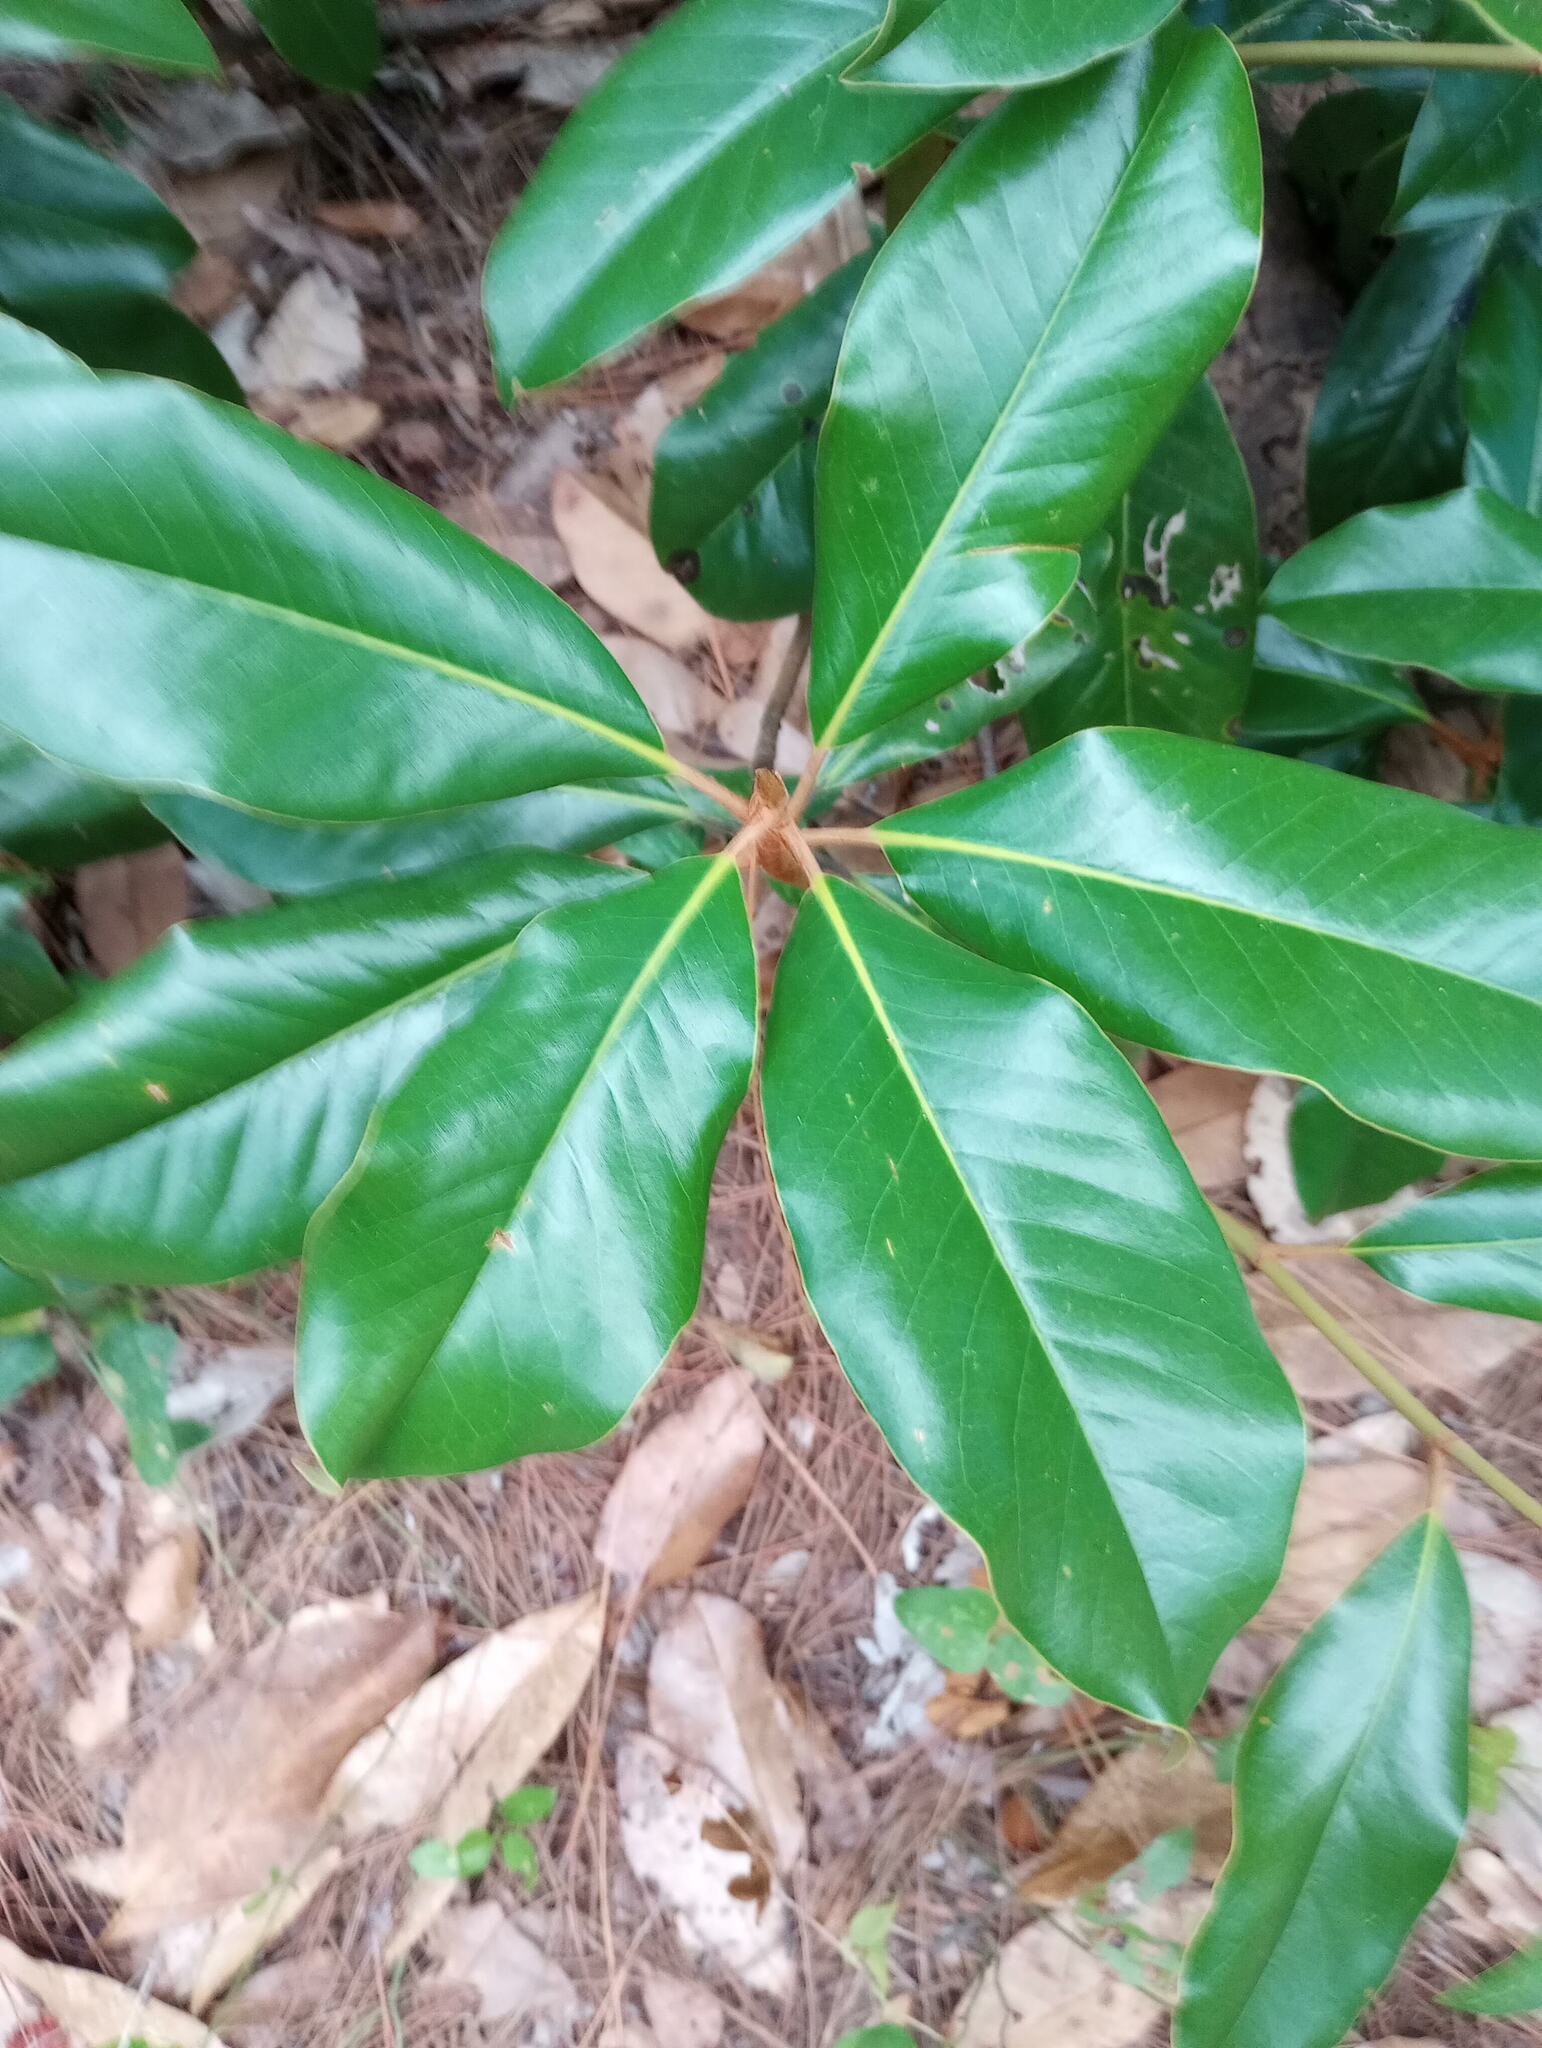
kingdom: Plantae
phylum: Tracheophyta
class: Magnoliopsida
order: Magnoliales
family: Magnoliaceae
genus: Magnolia
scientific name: Magnolia grandiflora
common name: Southern magnolia
